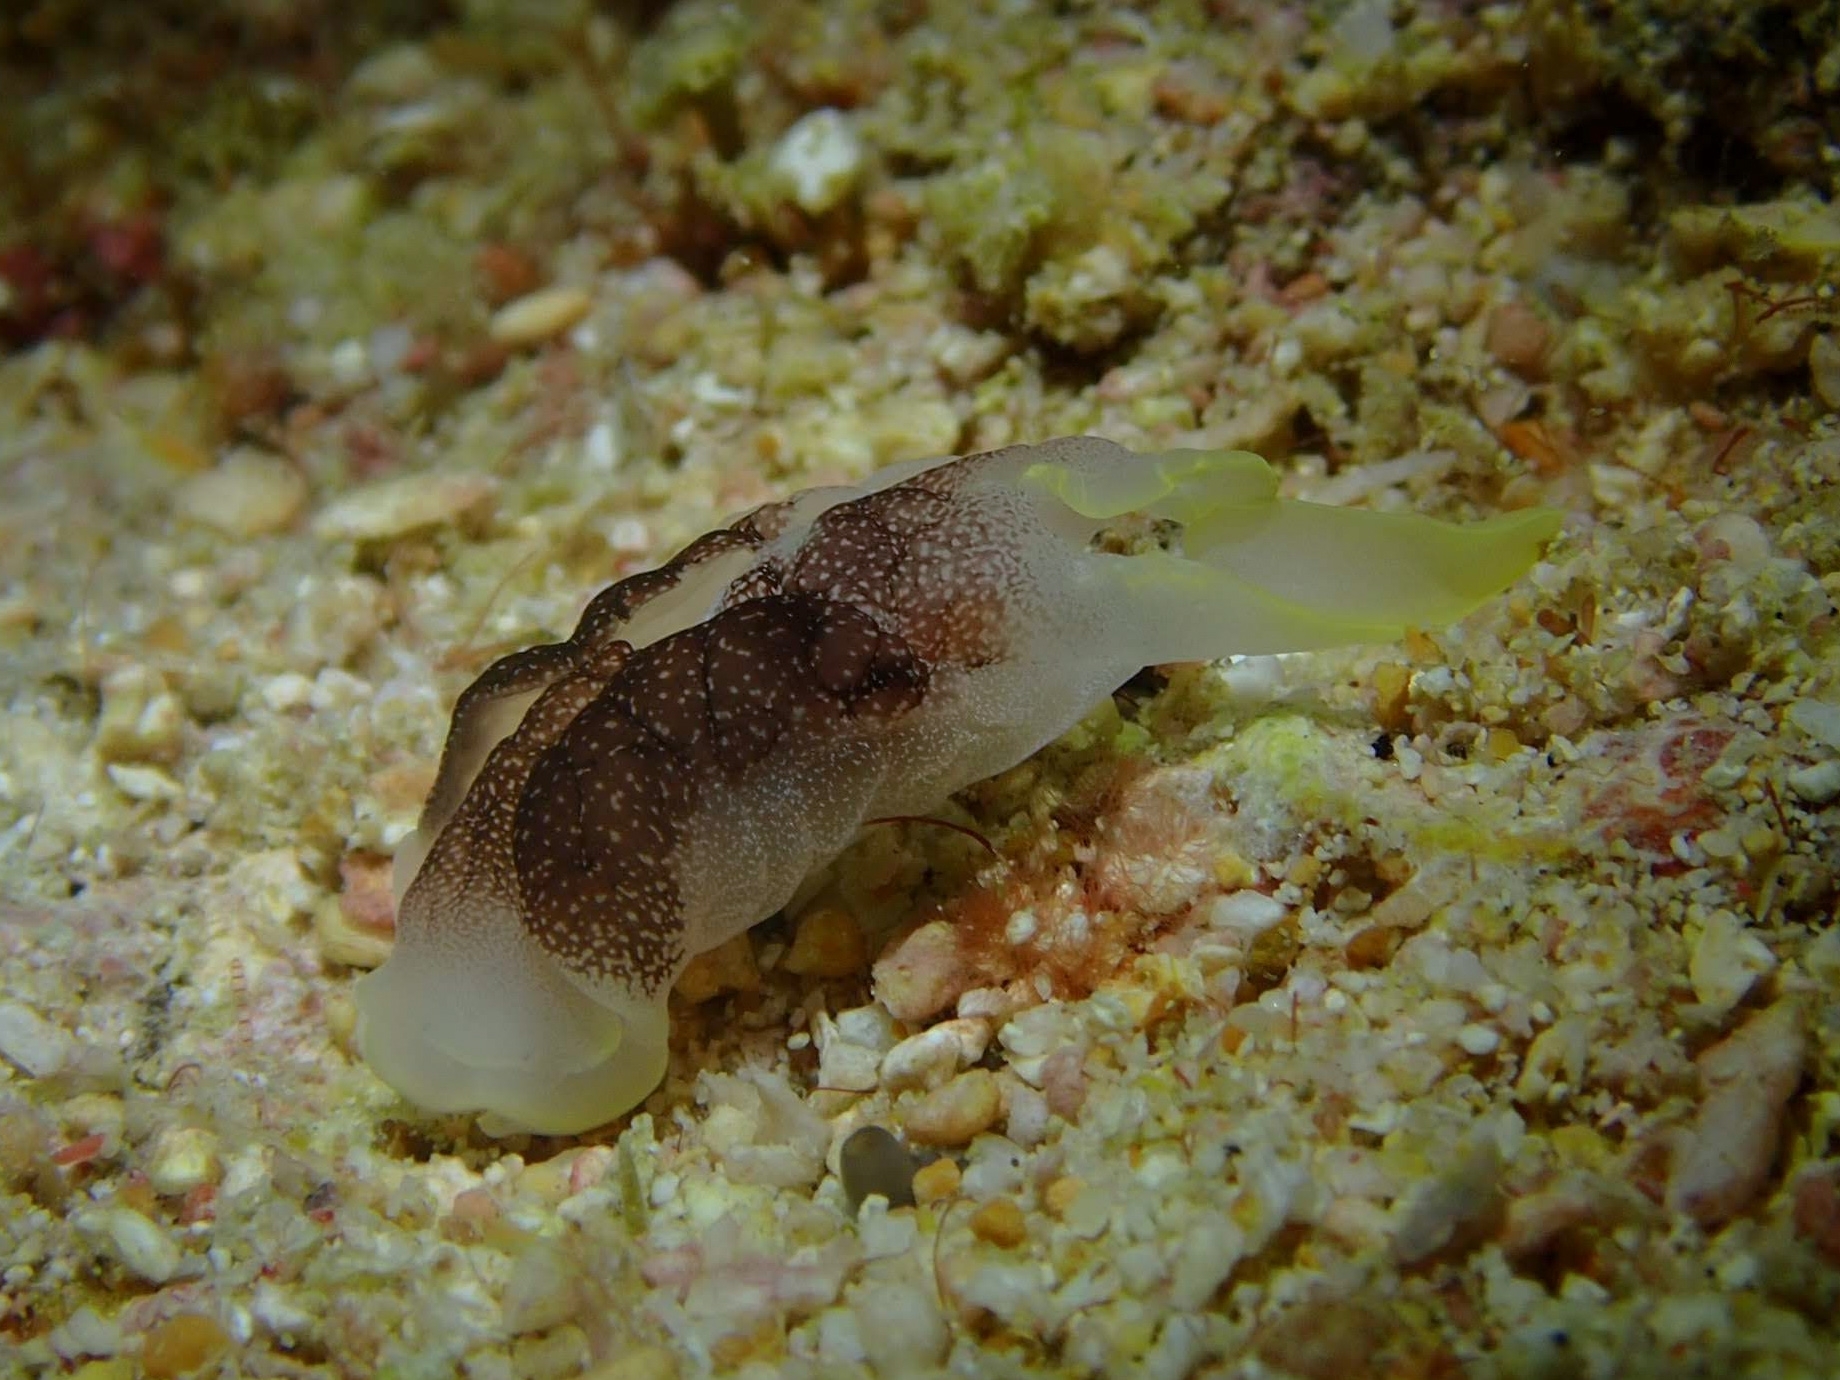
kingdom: Animalia
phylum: Mollusca
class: Gastropoda
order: Cephalaspidea
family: Aglajidae
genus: Chelidonura
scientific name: Chelidonura amoena
